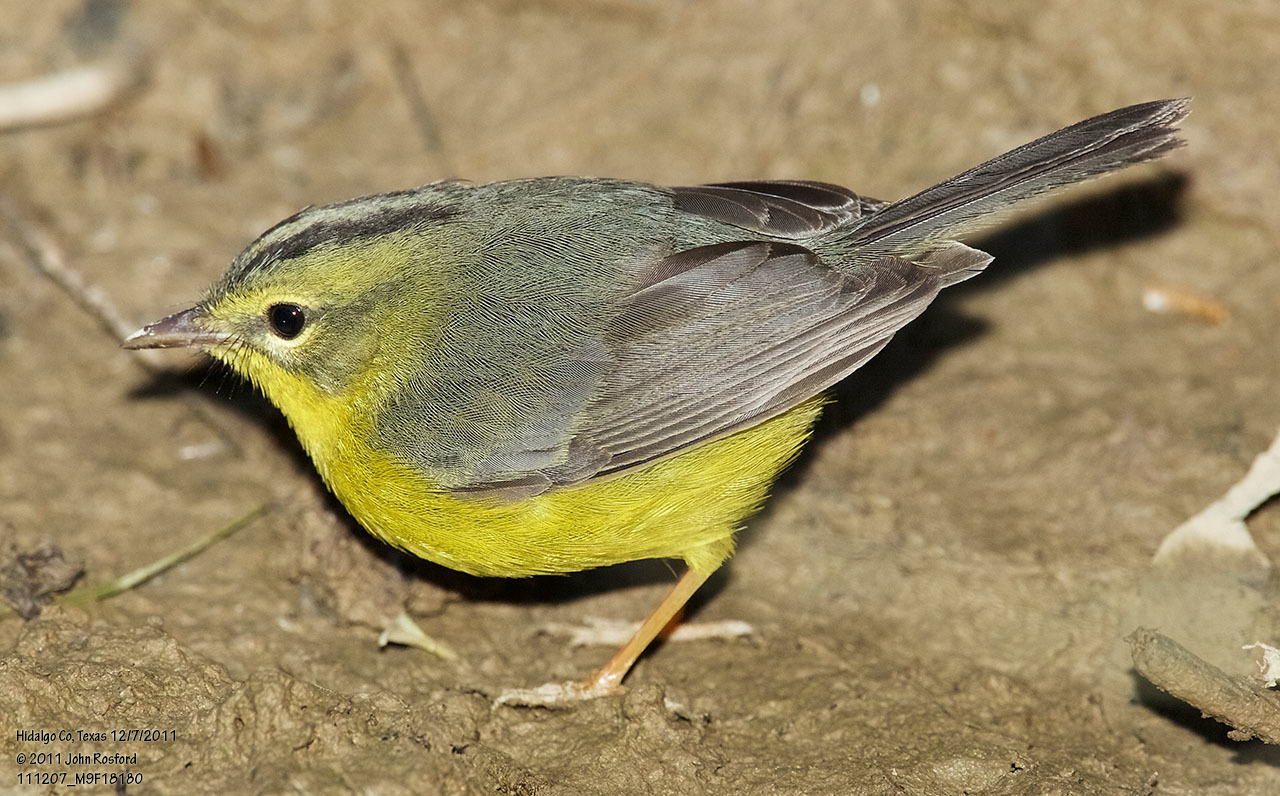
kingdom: Animalia
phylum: Chordata
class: Aves
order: Passeriformes
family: Parulidae
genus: Basileuterus
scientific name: Basileuterus culicivorus
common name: Golden-crowned warbler
